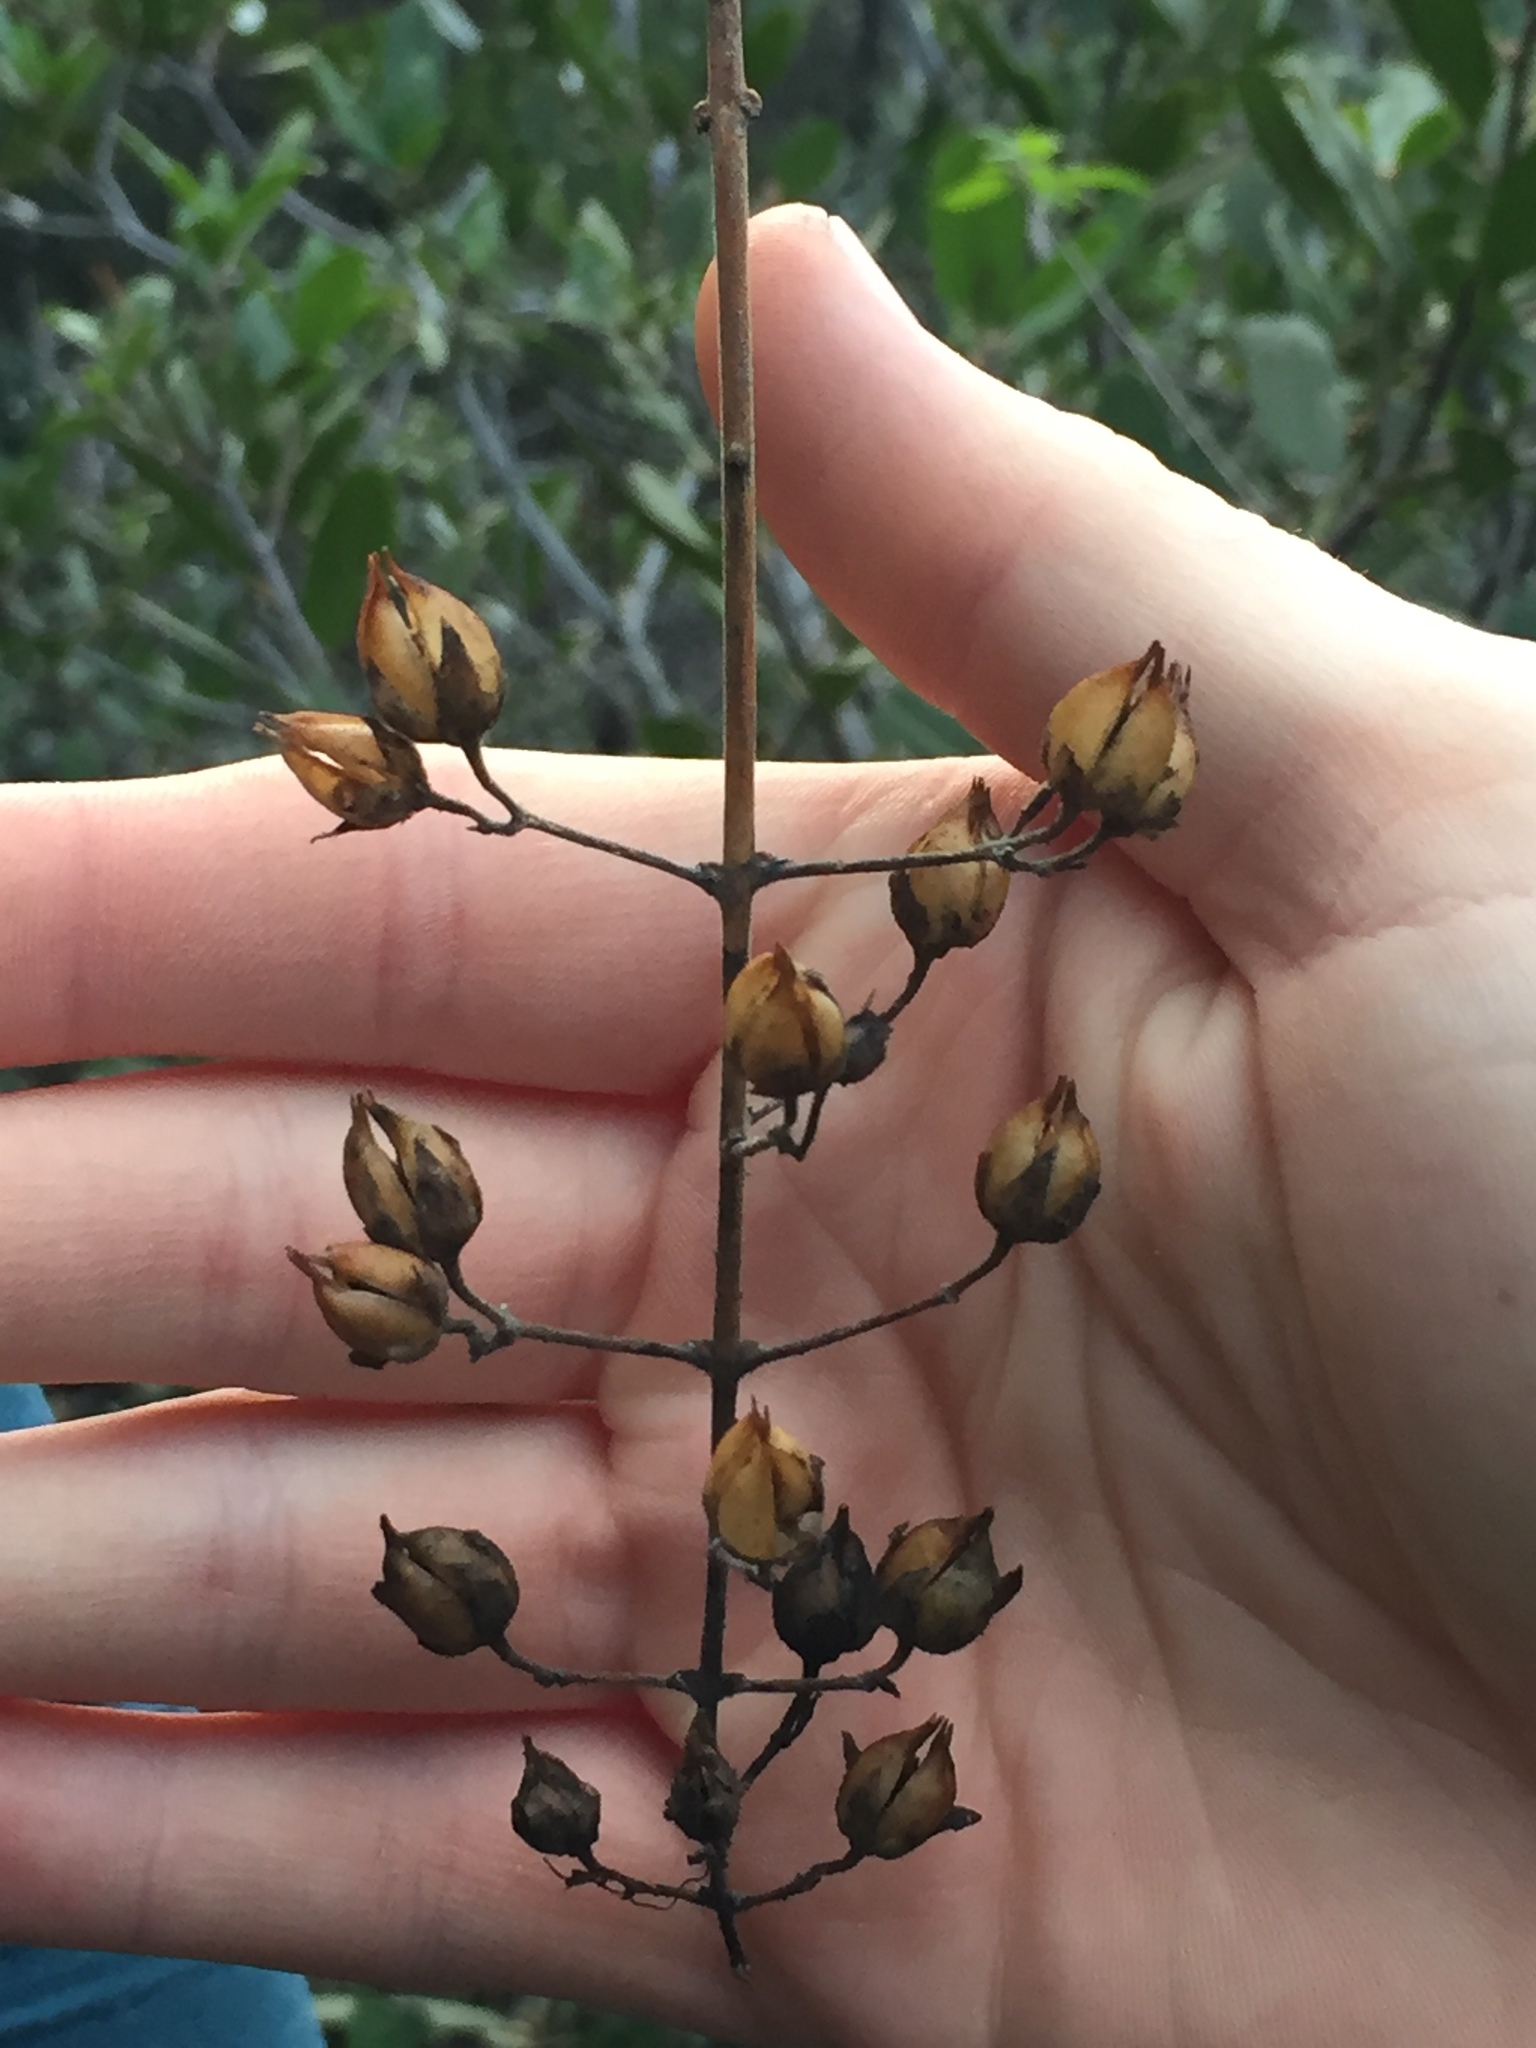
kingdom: Plantae
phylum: Tracheophyta
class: Magnoliopsida
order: Lamiales
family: Plantaginaceae
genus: Keckiella
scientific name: Keckiella cordifolia
